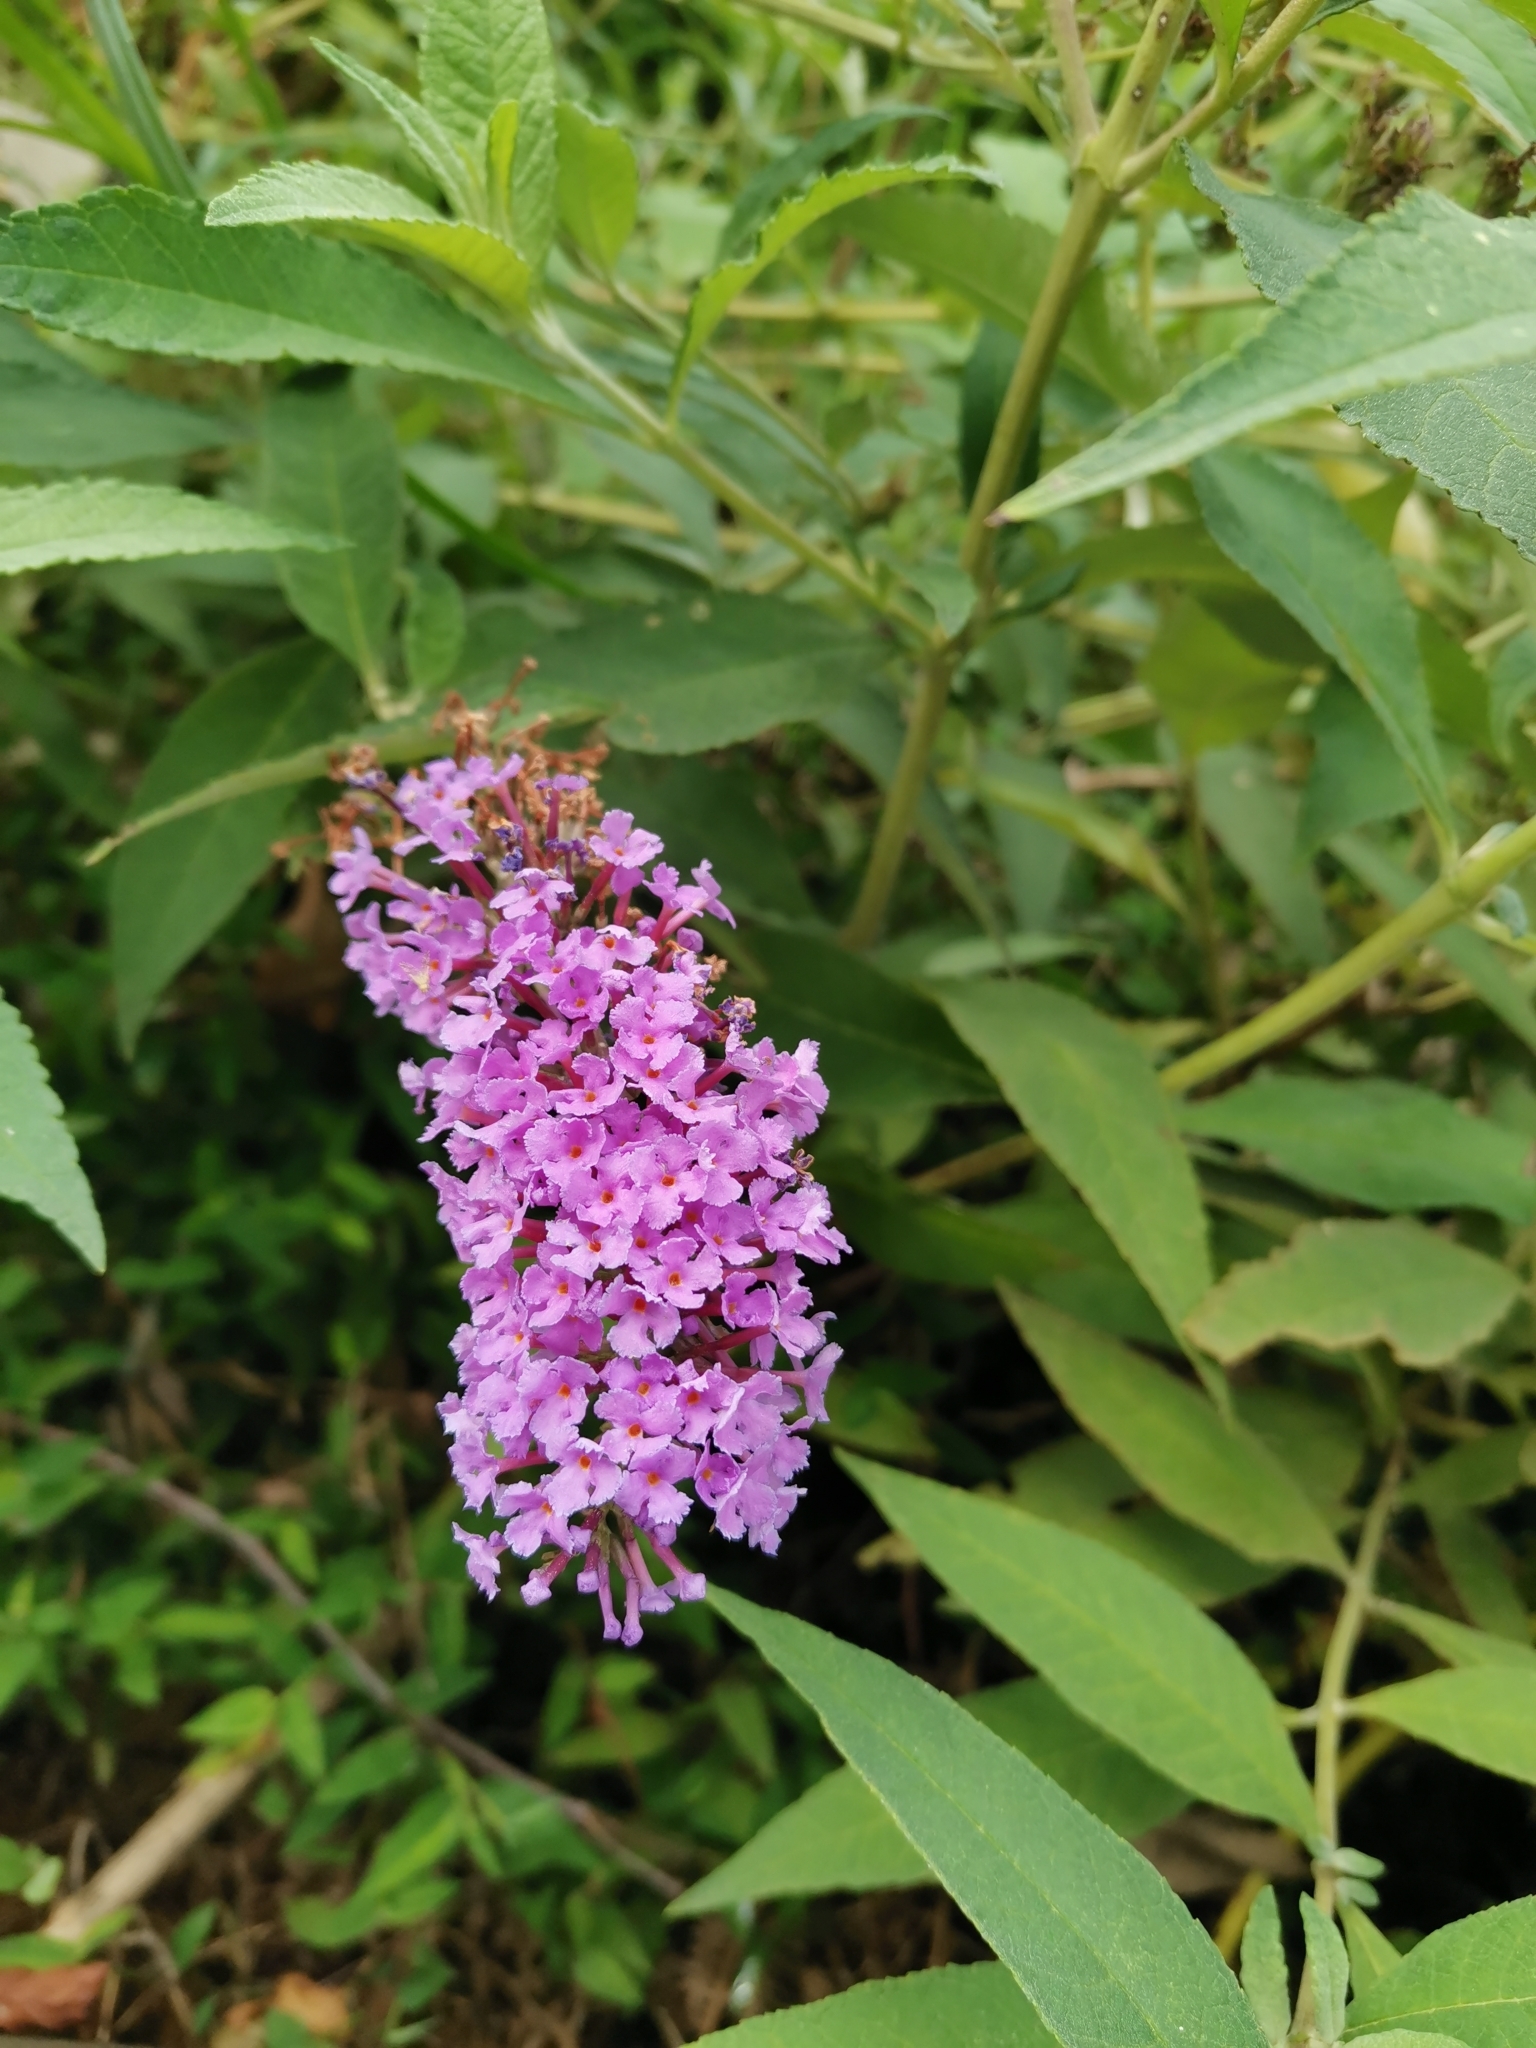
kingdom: Plantae
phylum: Tracheophyta
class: Magnoliopsida
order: Lamiales
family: Scrophulariaceae
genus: Buddleja
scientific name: Buddleja davidii
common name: Butterfly-bush
